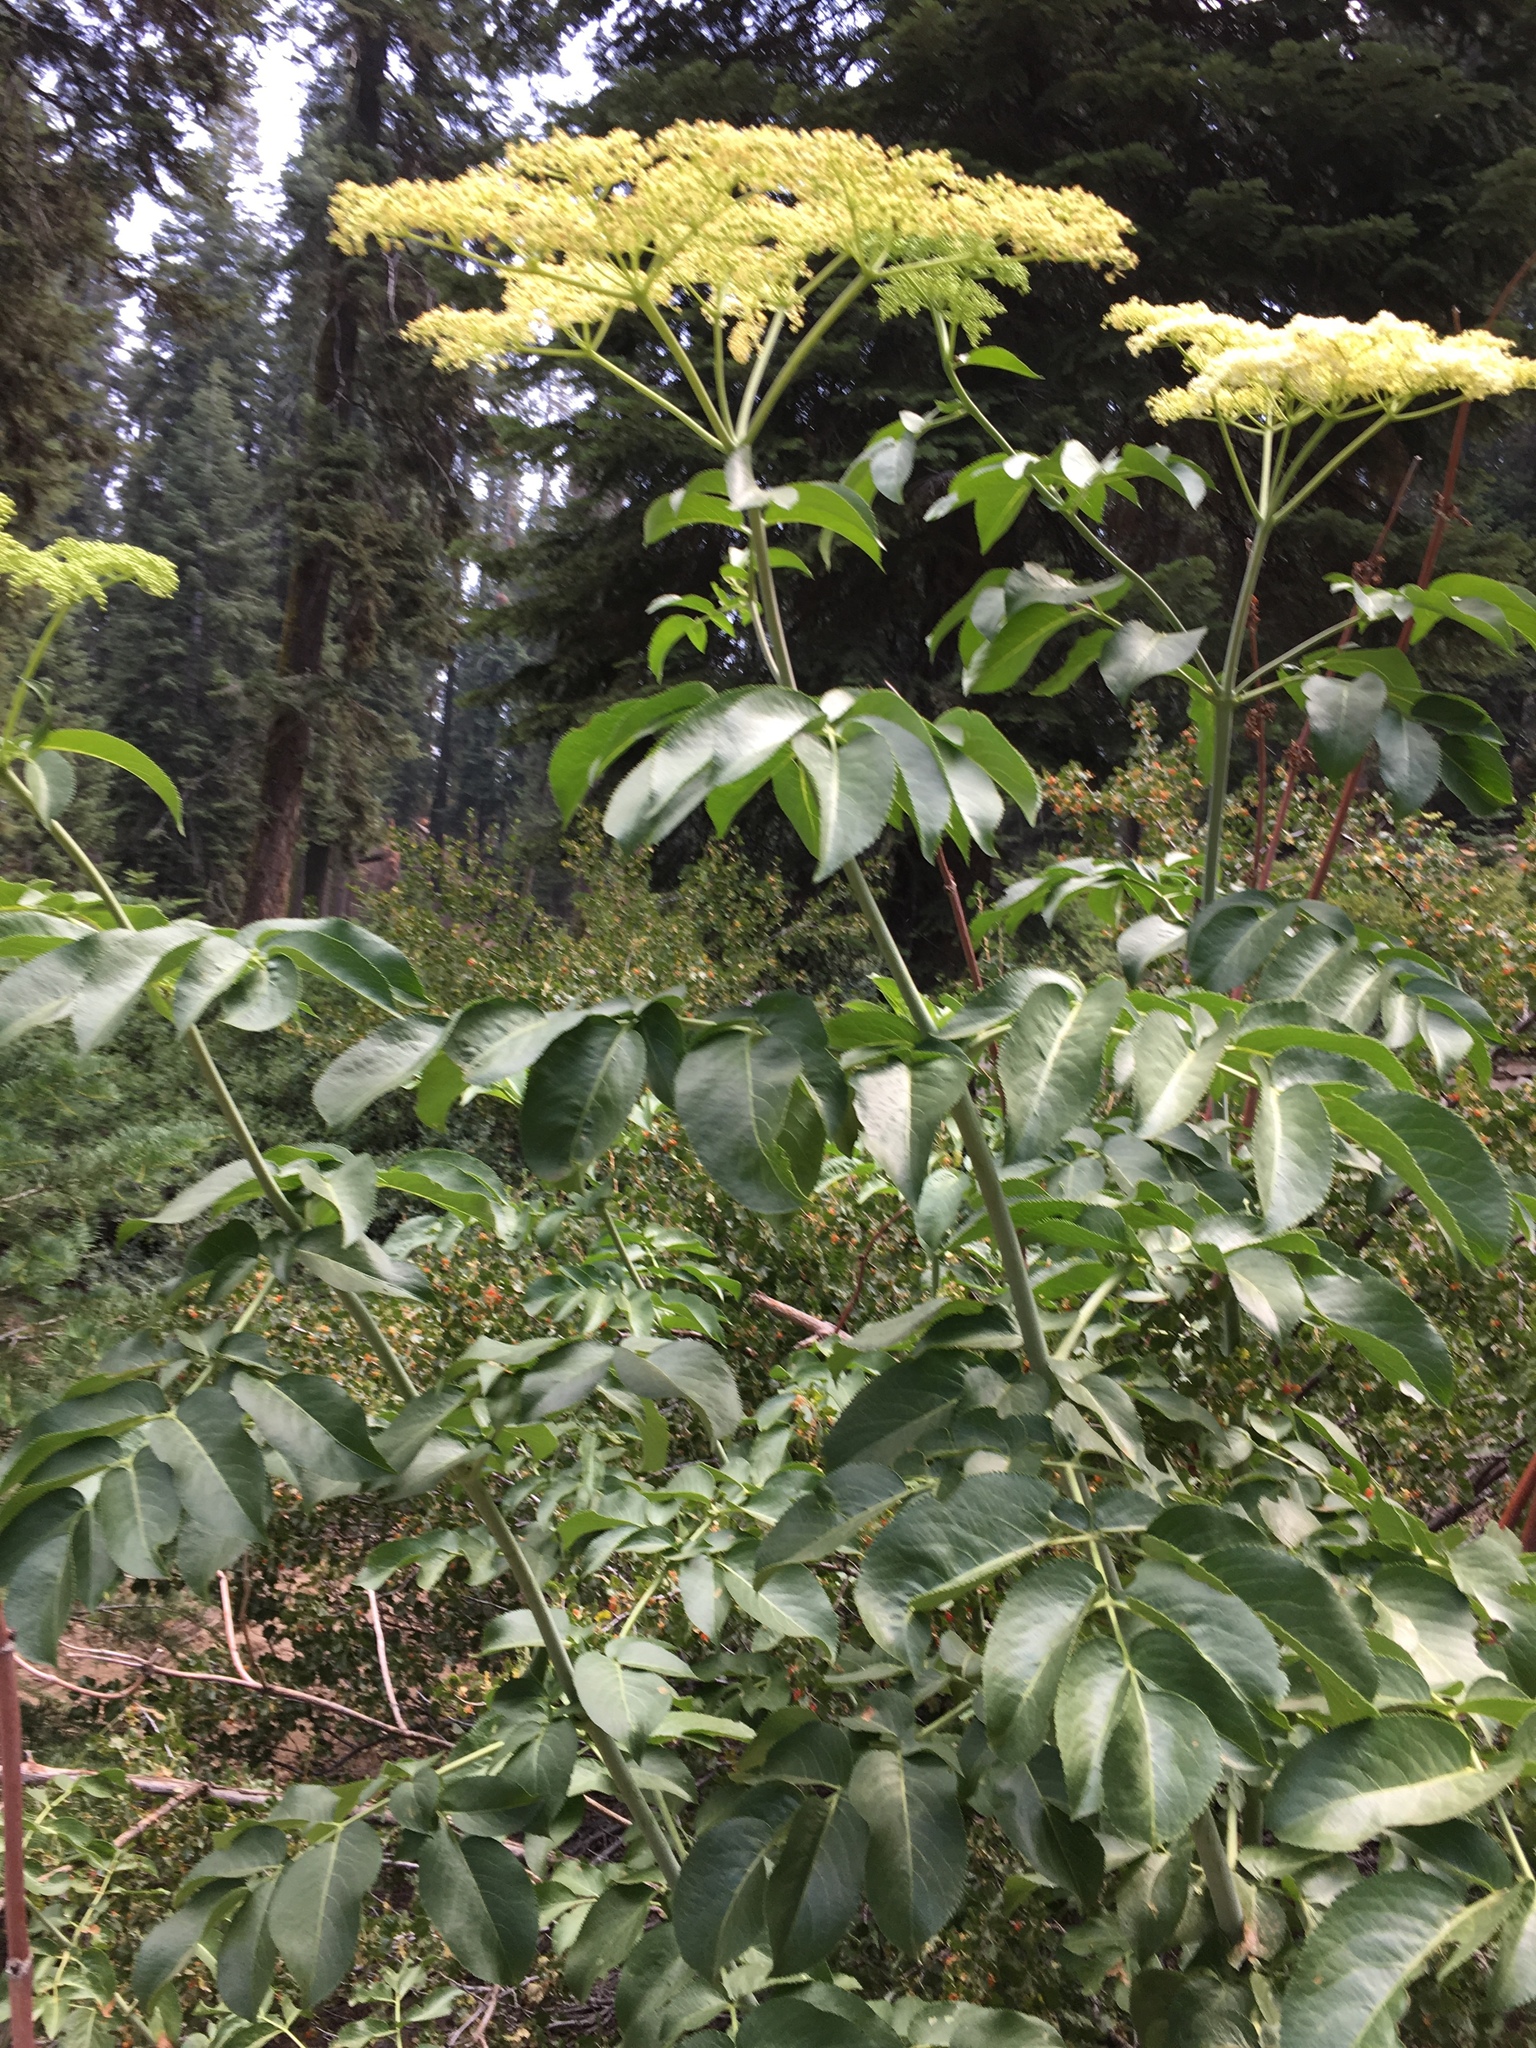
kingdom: Plantae
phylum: Tracheophyta
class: Magnoliopsida
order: Dipsacales
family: Viburnaceae
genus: Sambucus
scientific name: Sambucus cerulea
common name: Blue elder
